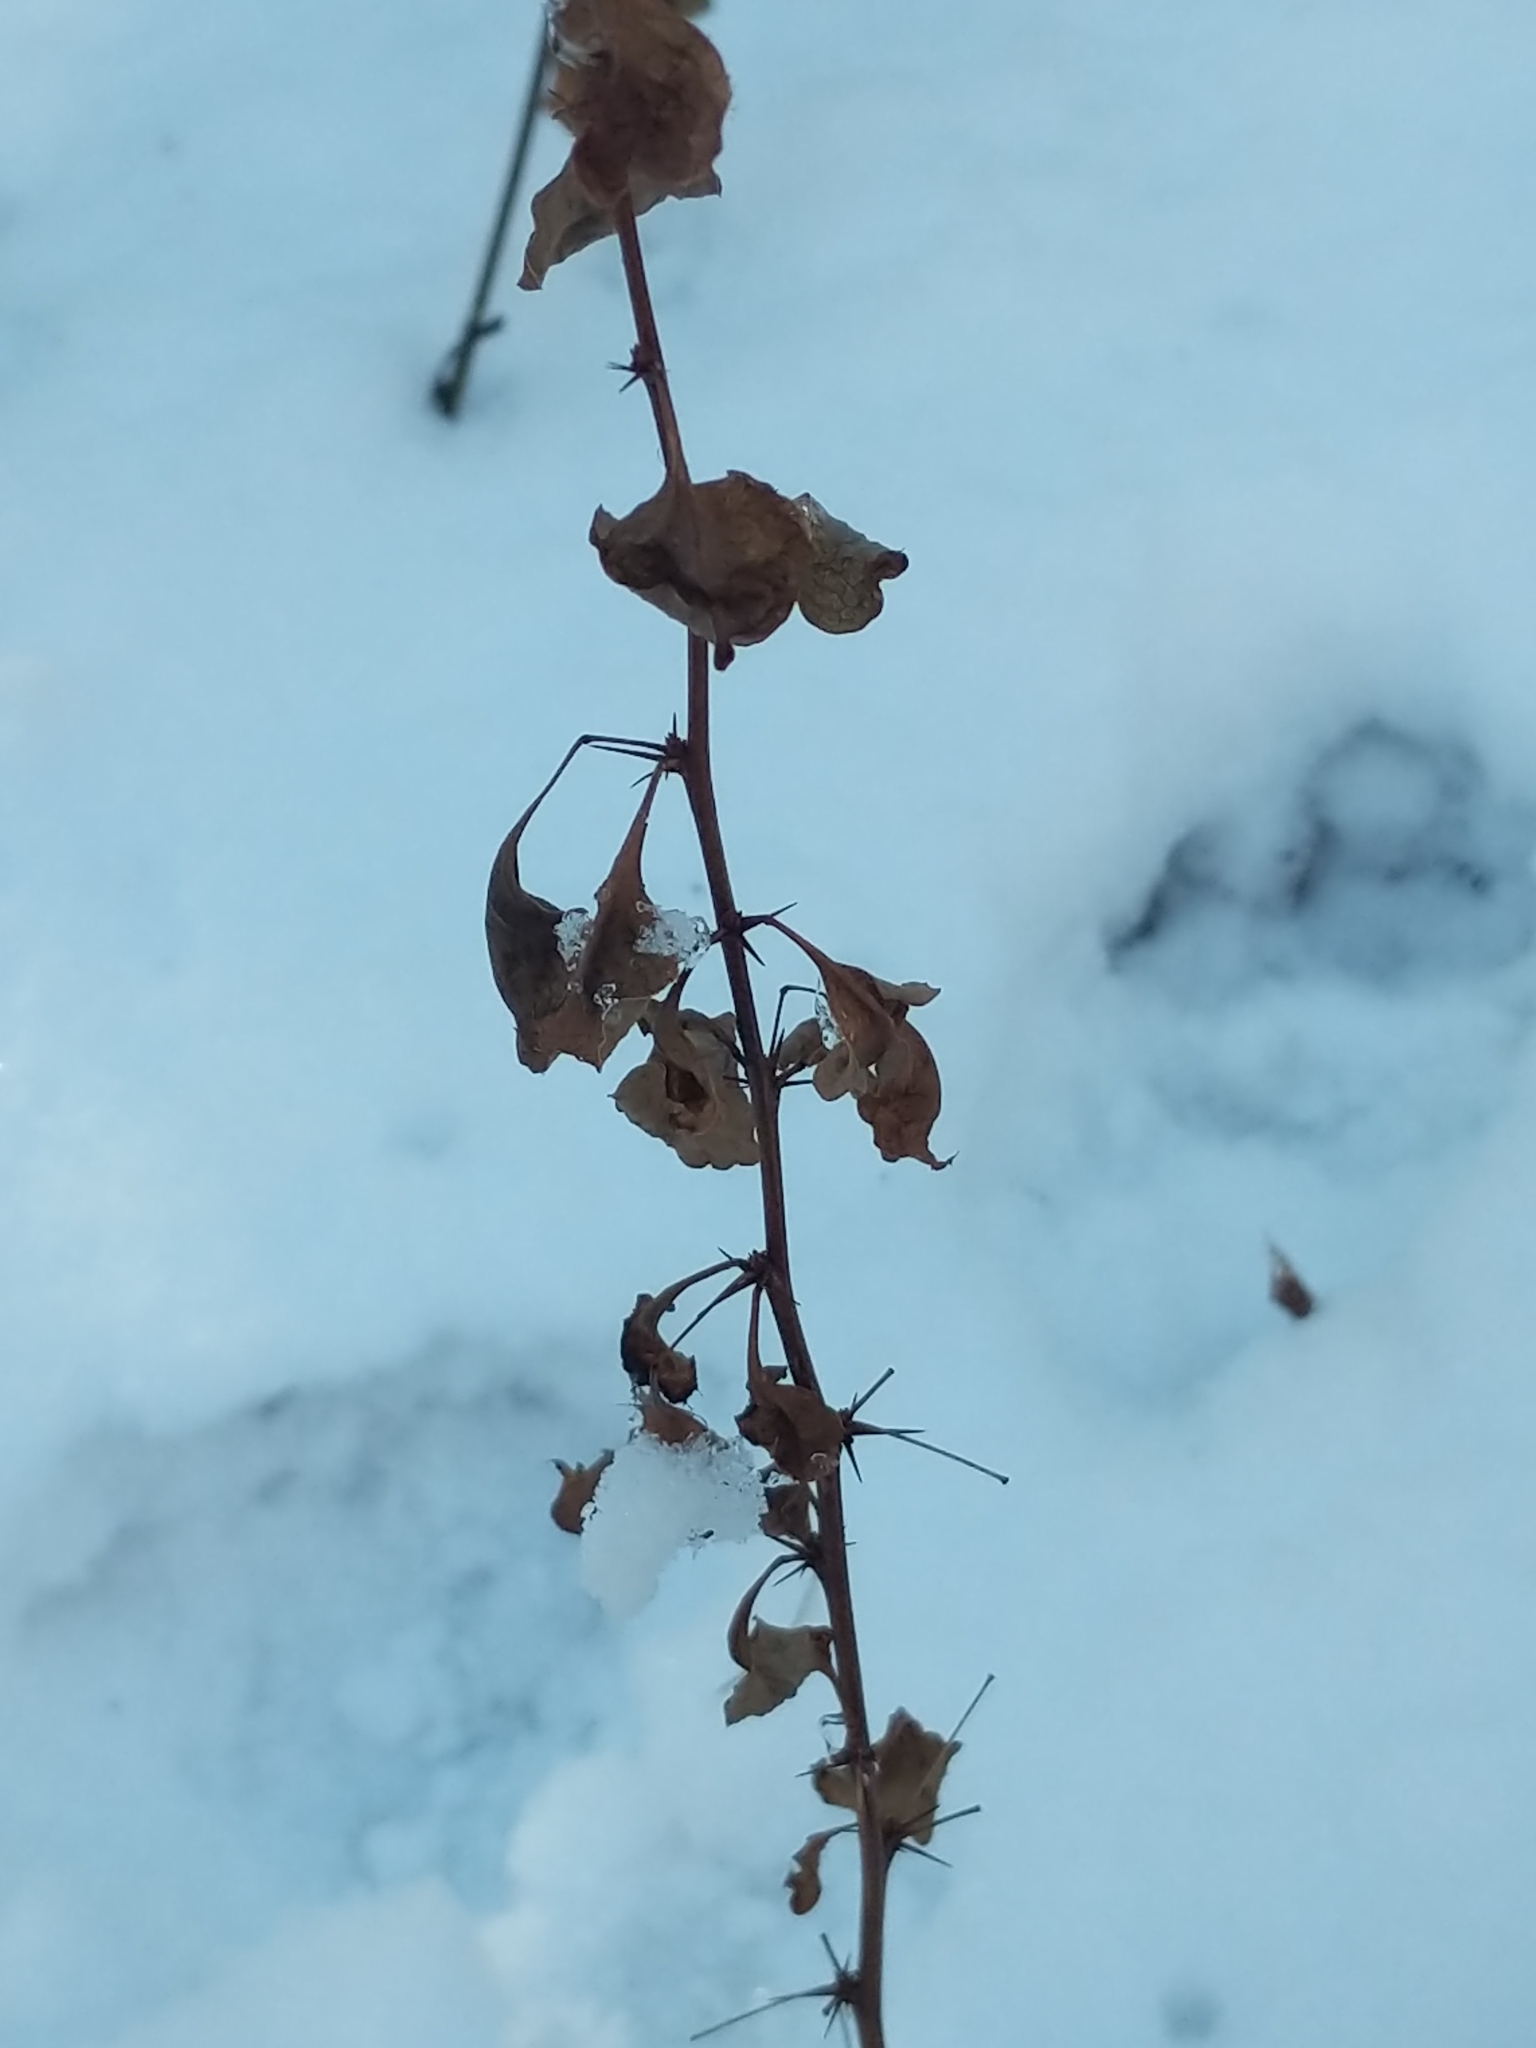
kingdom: Plantae
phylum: Tracheophyta
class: Magnoliopsida
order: Ranunculales
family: Berberidaceae
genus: Berberis
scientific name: Berberis thunbergii
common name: Japanese barberry
